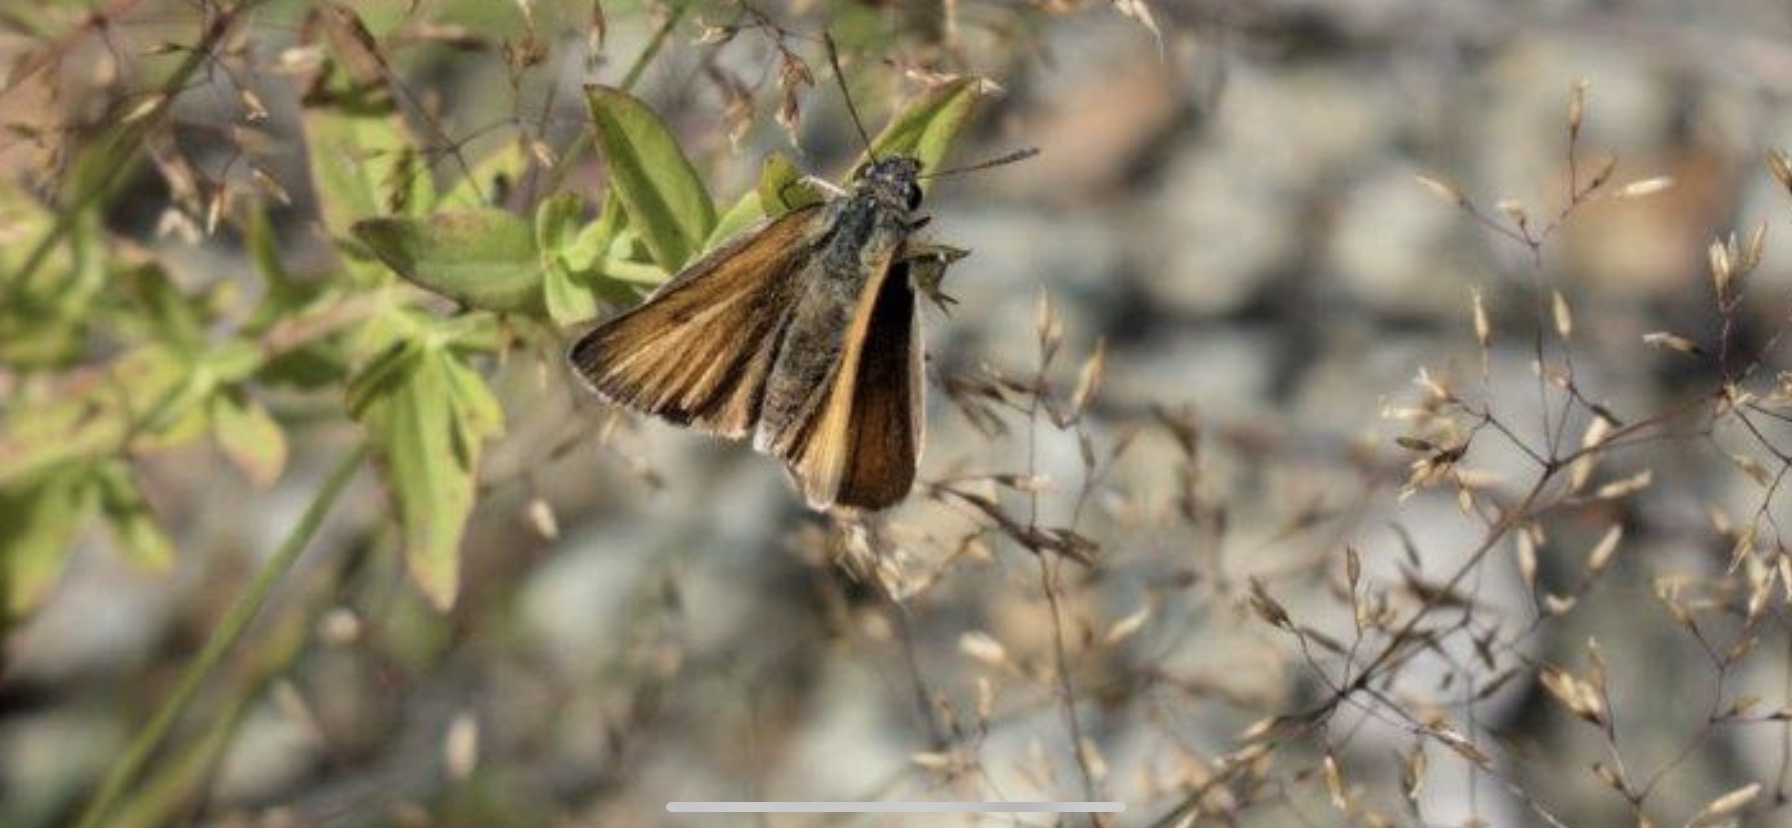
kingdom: Animalia
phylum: Arthropoda
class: Insecta
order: Lepidoptera
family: Hesperiidae
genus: Thymelicus
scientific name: Thymelicus lineola
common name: Essex skipper
